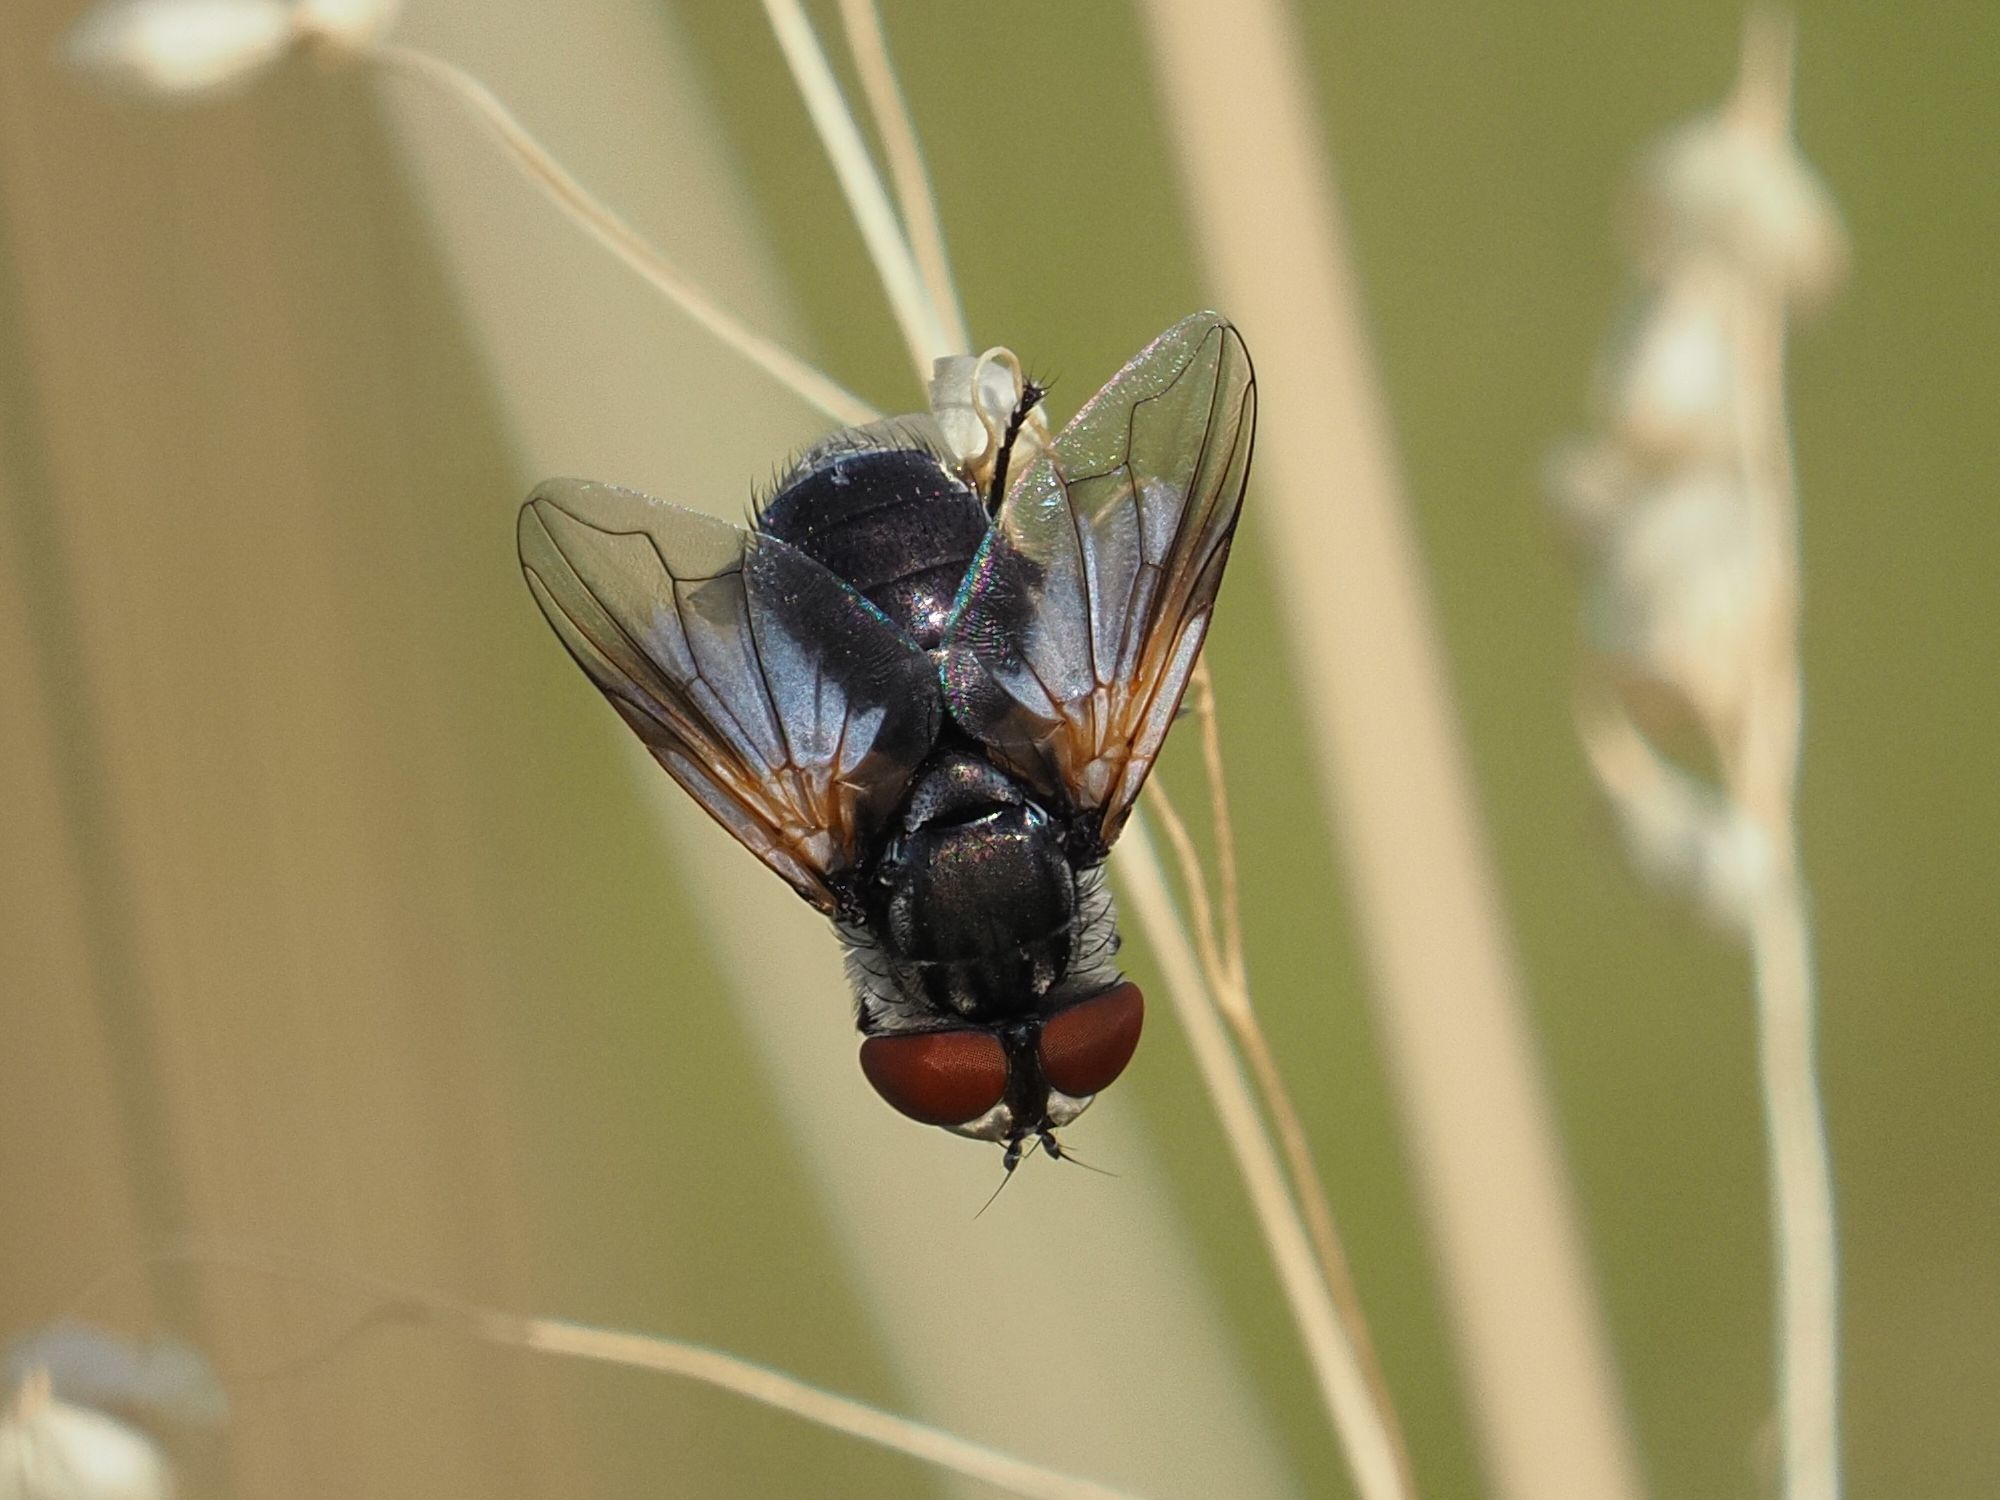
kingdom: Animalia
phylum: Arthropoda
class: Insecta
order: Diptera
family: Tachinidae
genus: Elomya
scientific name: Elomya lateralis
